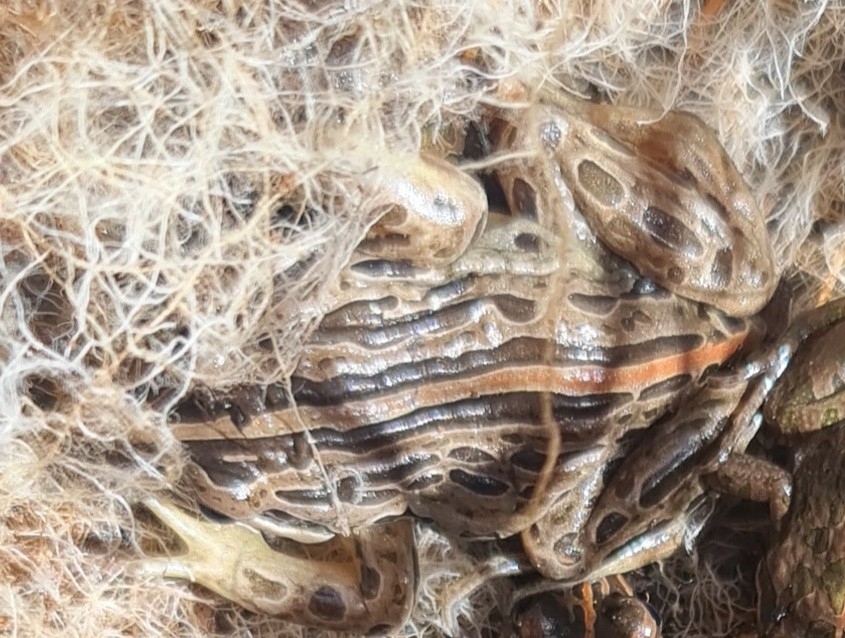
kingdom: Animalia
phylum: Chordata
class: Amphibia
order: Anura
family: Limnodynastidae
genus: Limnodynastes
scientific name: Limnodynastes peronii
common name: Brown frog
